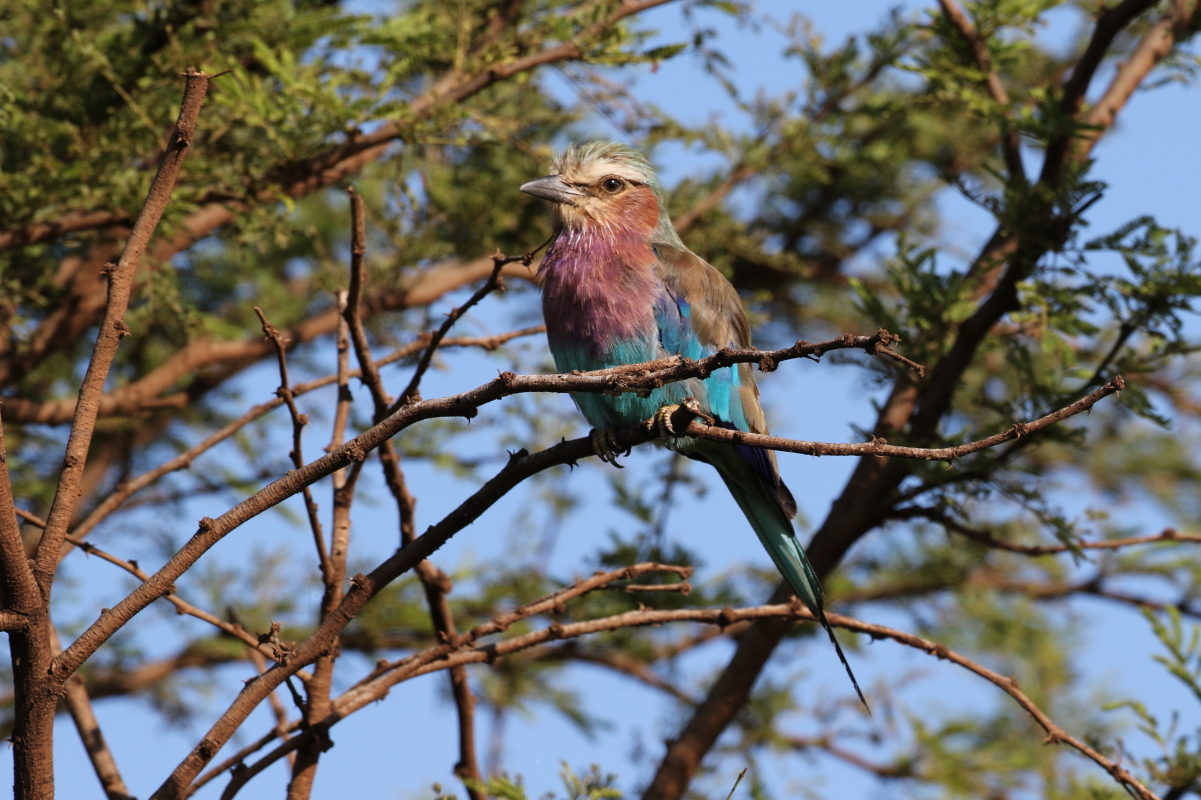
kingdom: Animalia
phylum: Chordata
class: Aves
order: Coraciiformes
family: Coraciidae
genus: Coracias
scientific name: Coracias caudatus
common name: Lilac-breasted roller
